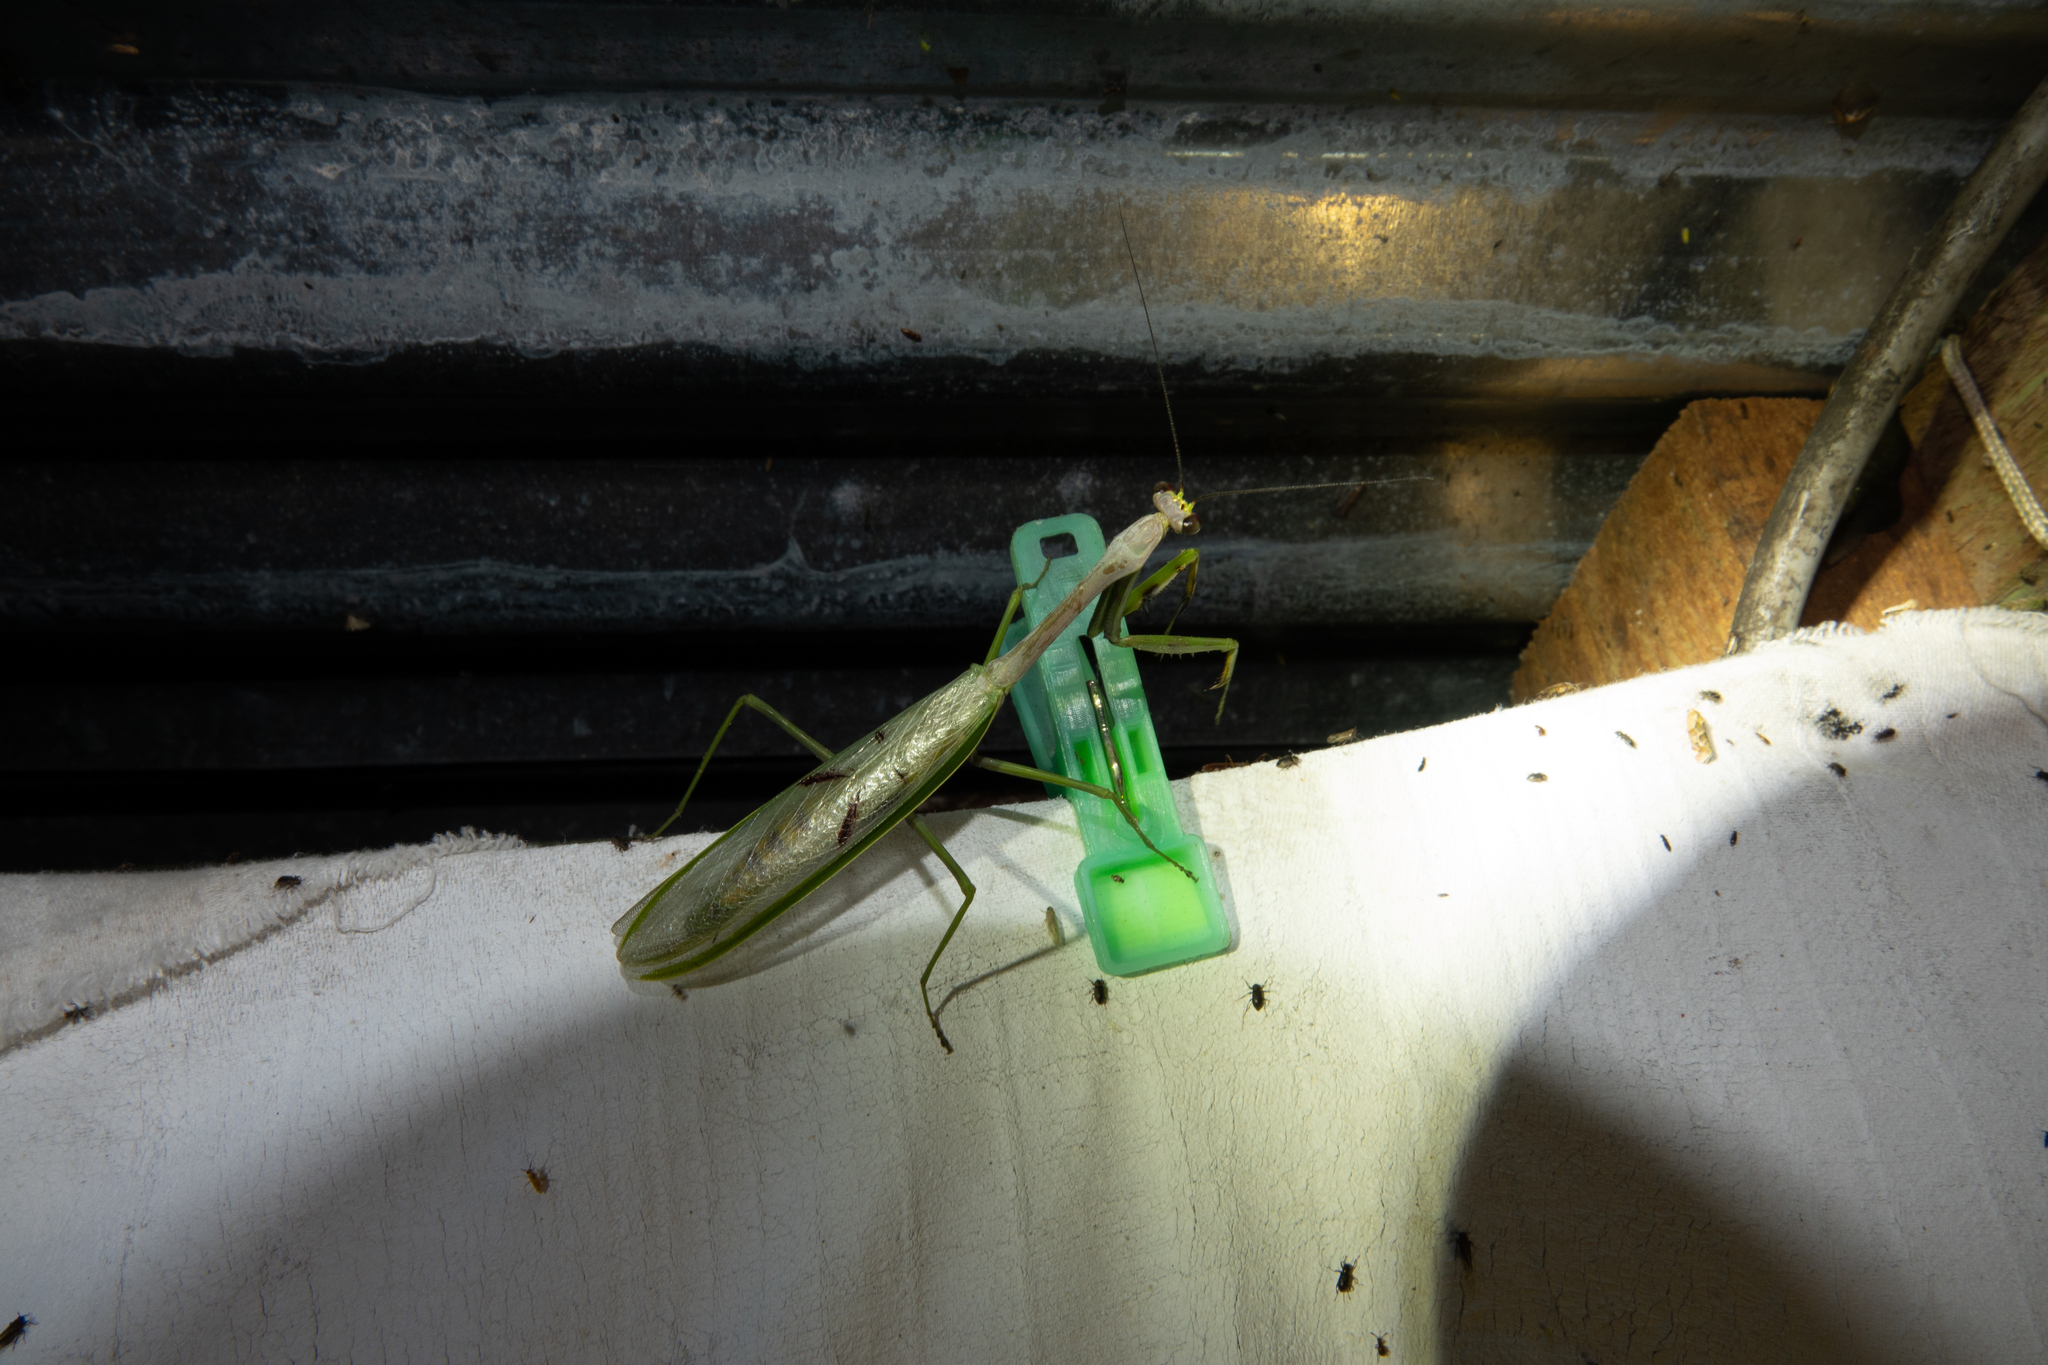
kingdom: Animalia
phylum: Arthropoda
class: Insecta
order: Mantodea
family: Mantidae
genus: Stagmatoptera
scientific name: Stagmatoptera supplicaria
